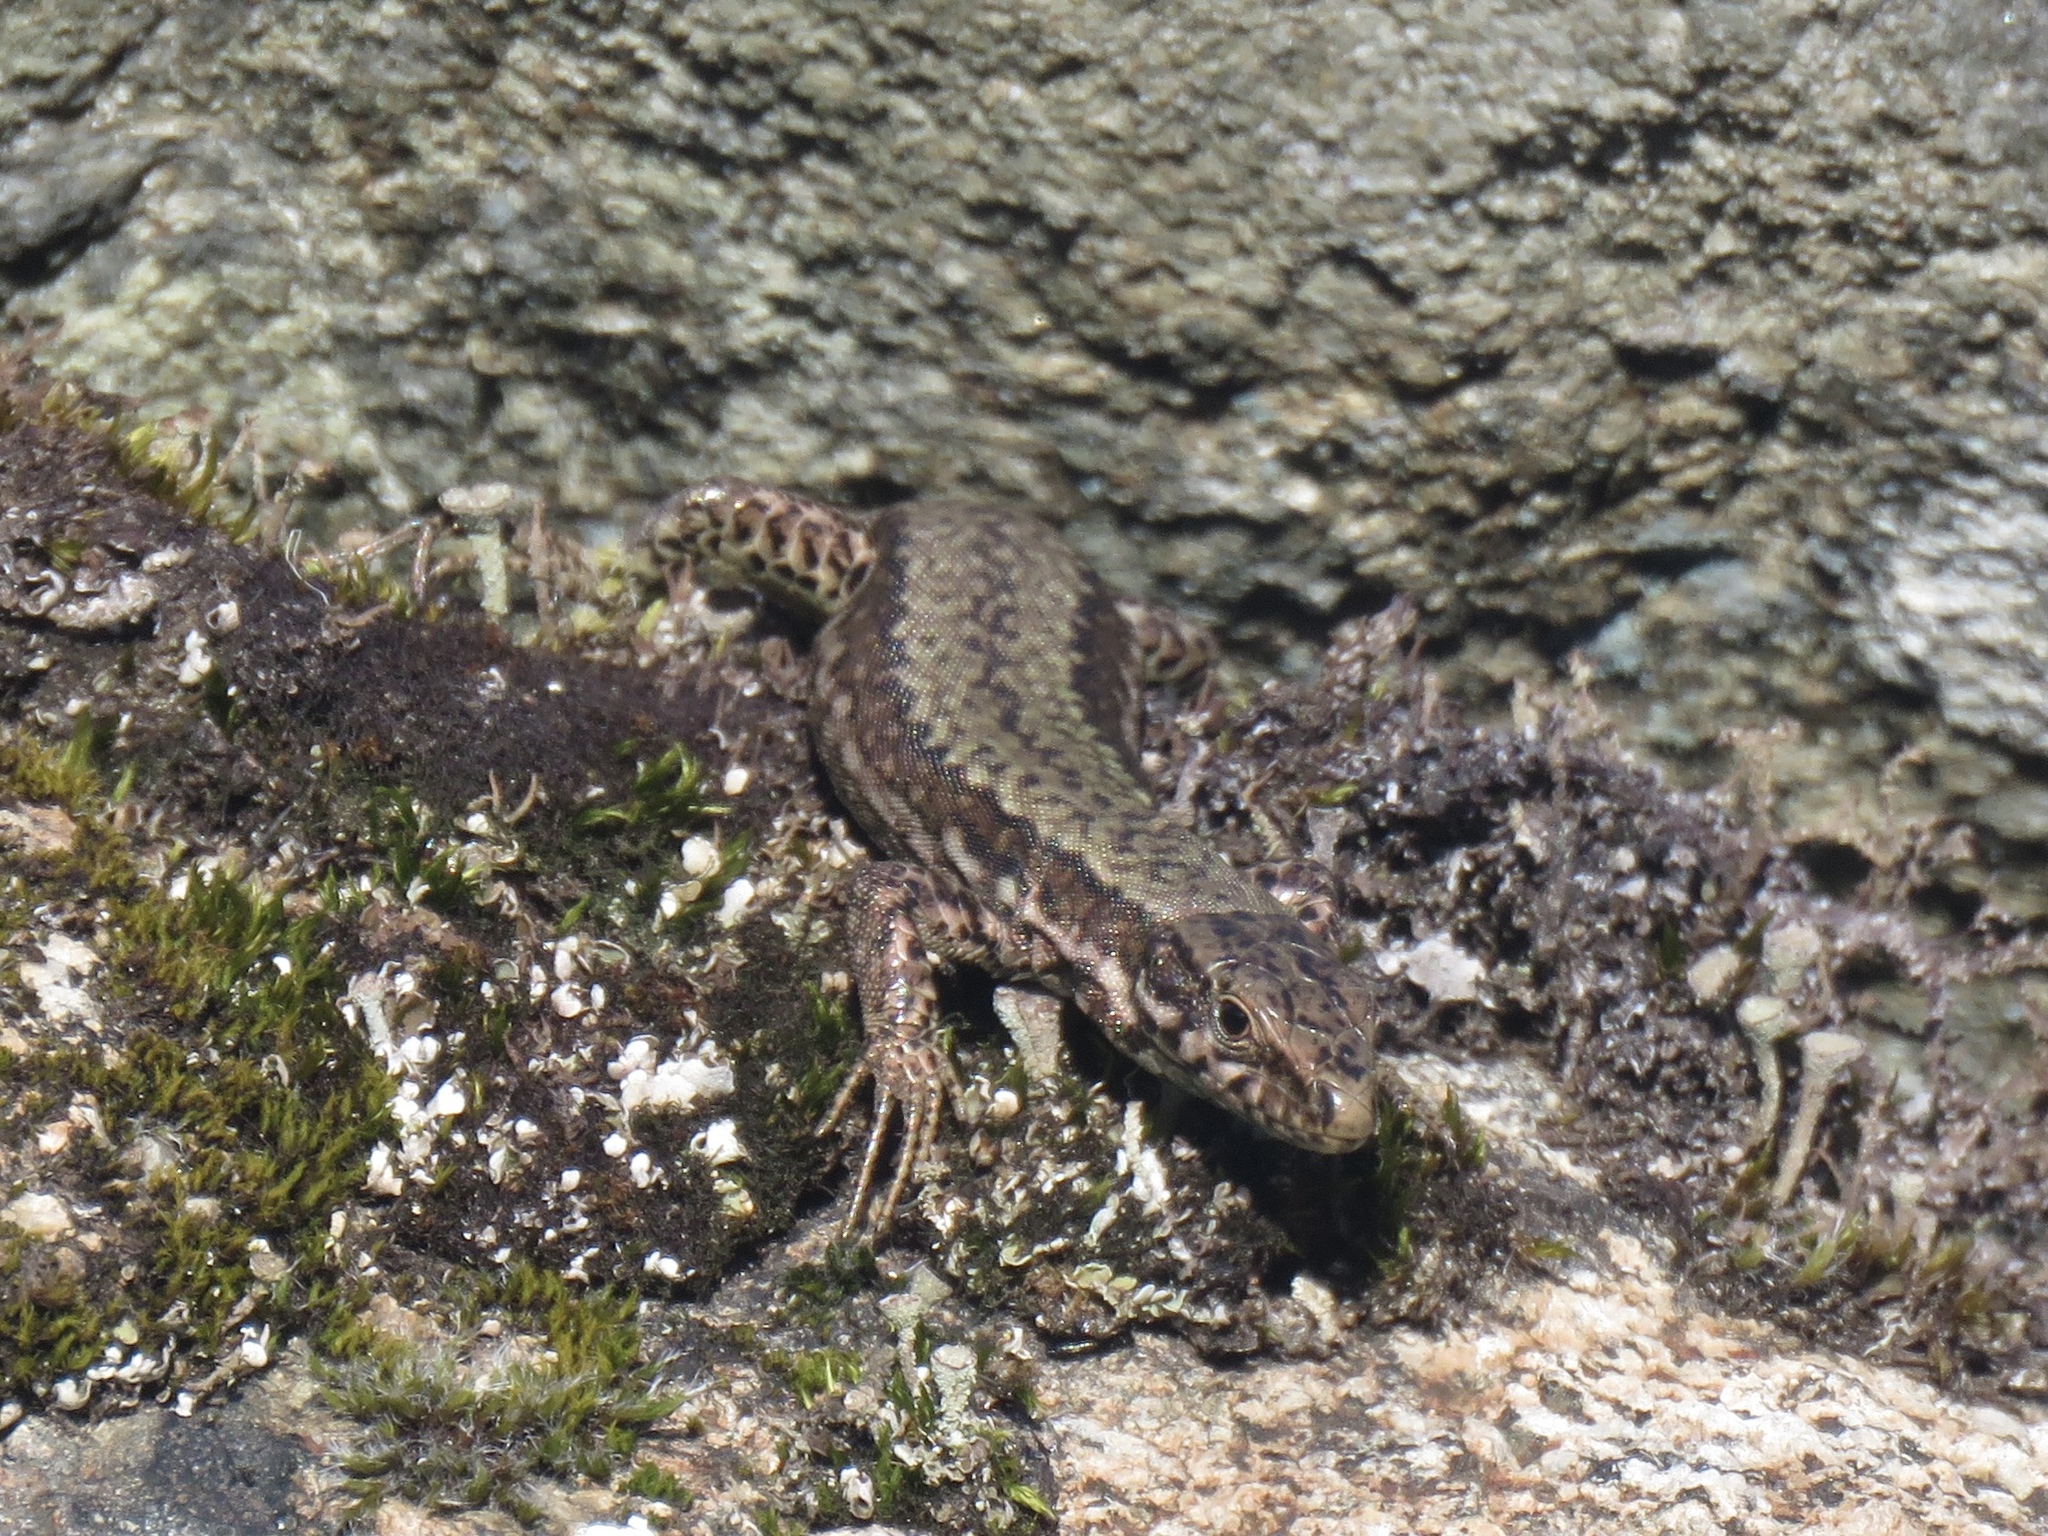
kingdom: Animalia
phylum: Chordata
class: Squamata
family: Lacertidae
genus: Podarcis
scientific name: Podarcis muralis
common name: Common wall lizard
